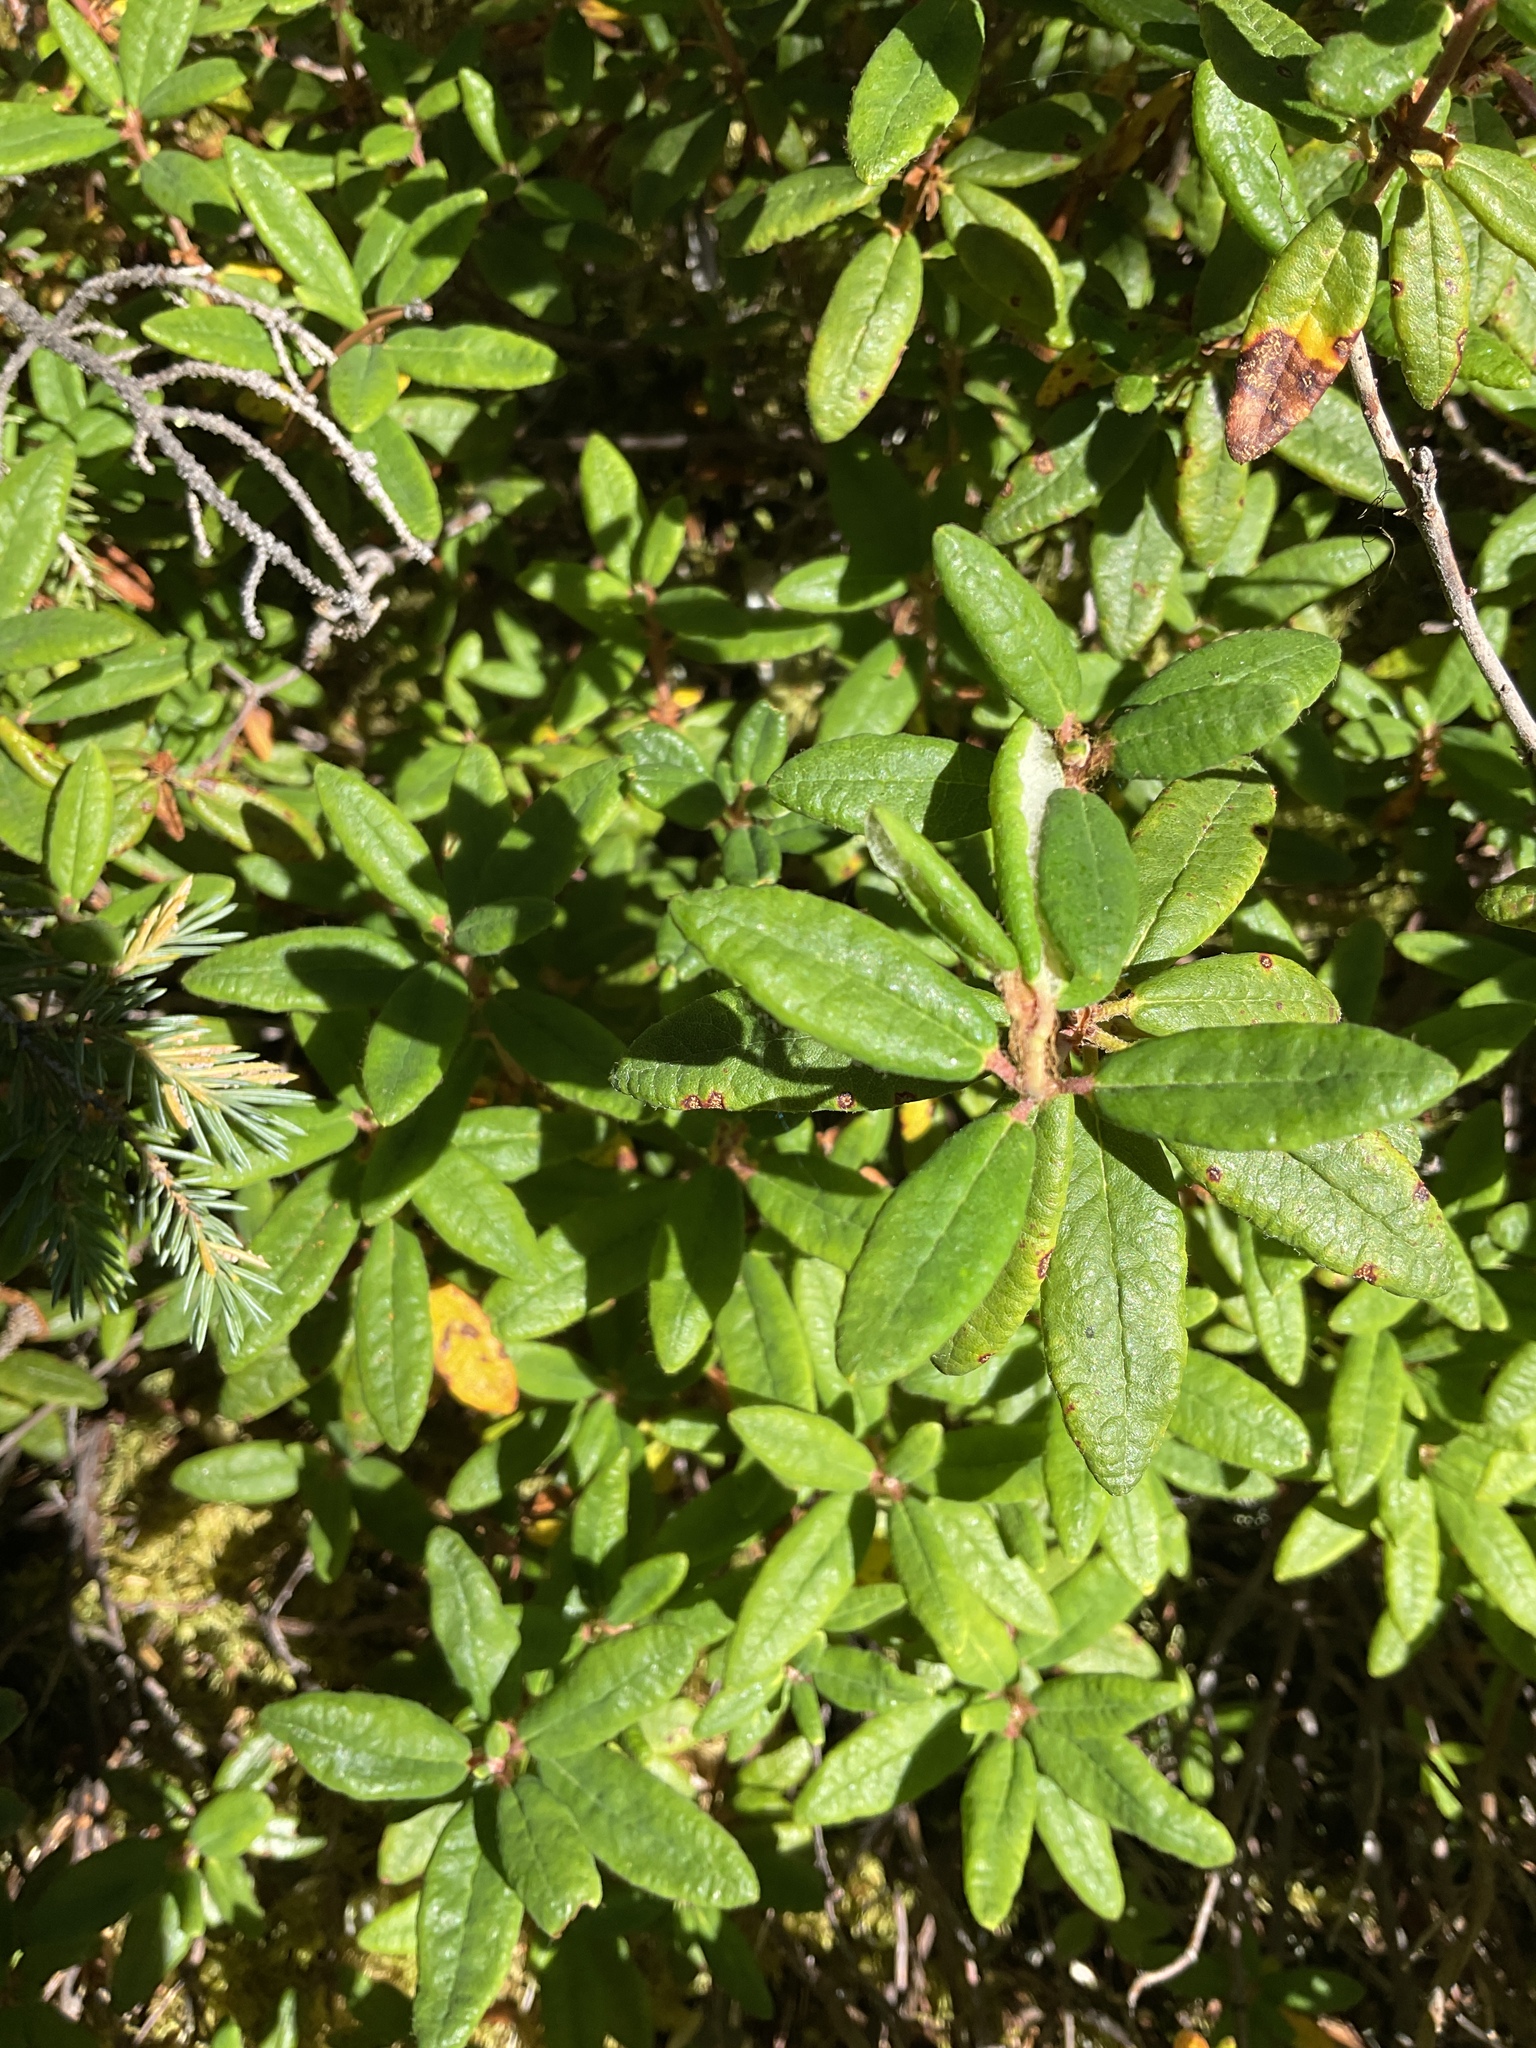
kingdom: Plantae
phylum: Tracheophyta
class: Magnoliopsida
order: Ericales
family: Ericaceae
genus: Rhododendron
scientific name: Rhododendron groenlandicum
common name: Bog labrador tea
